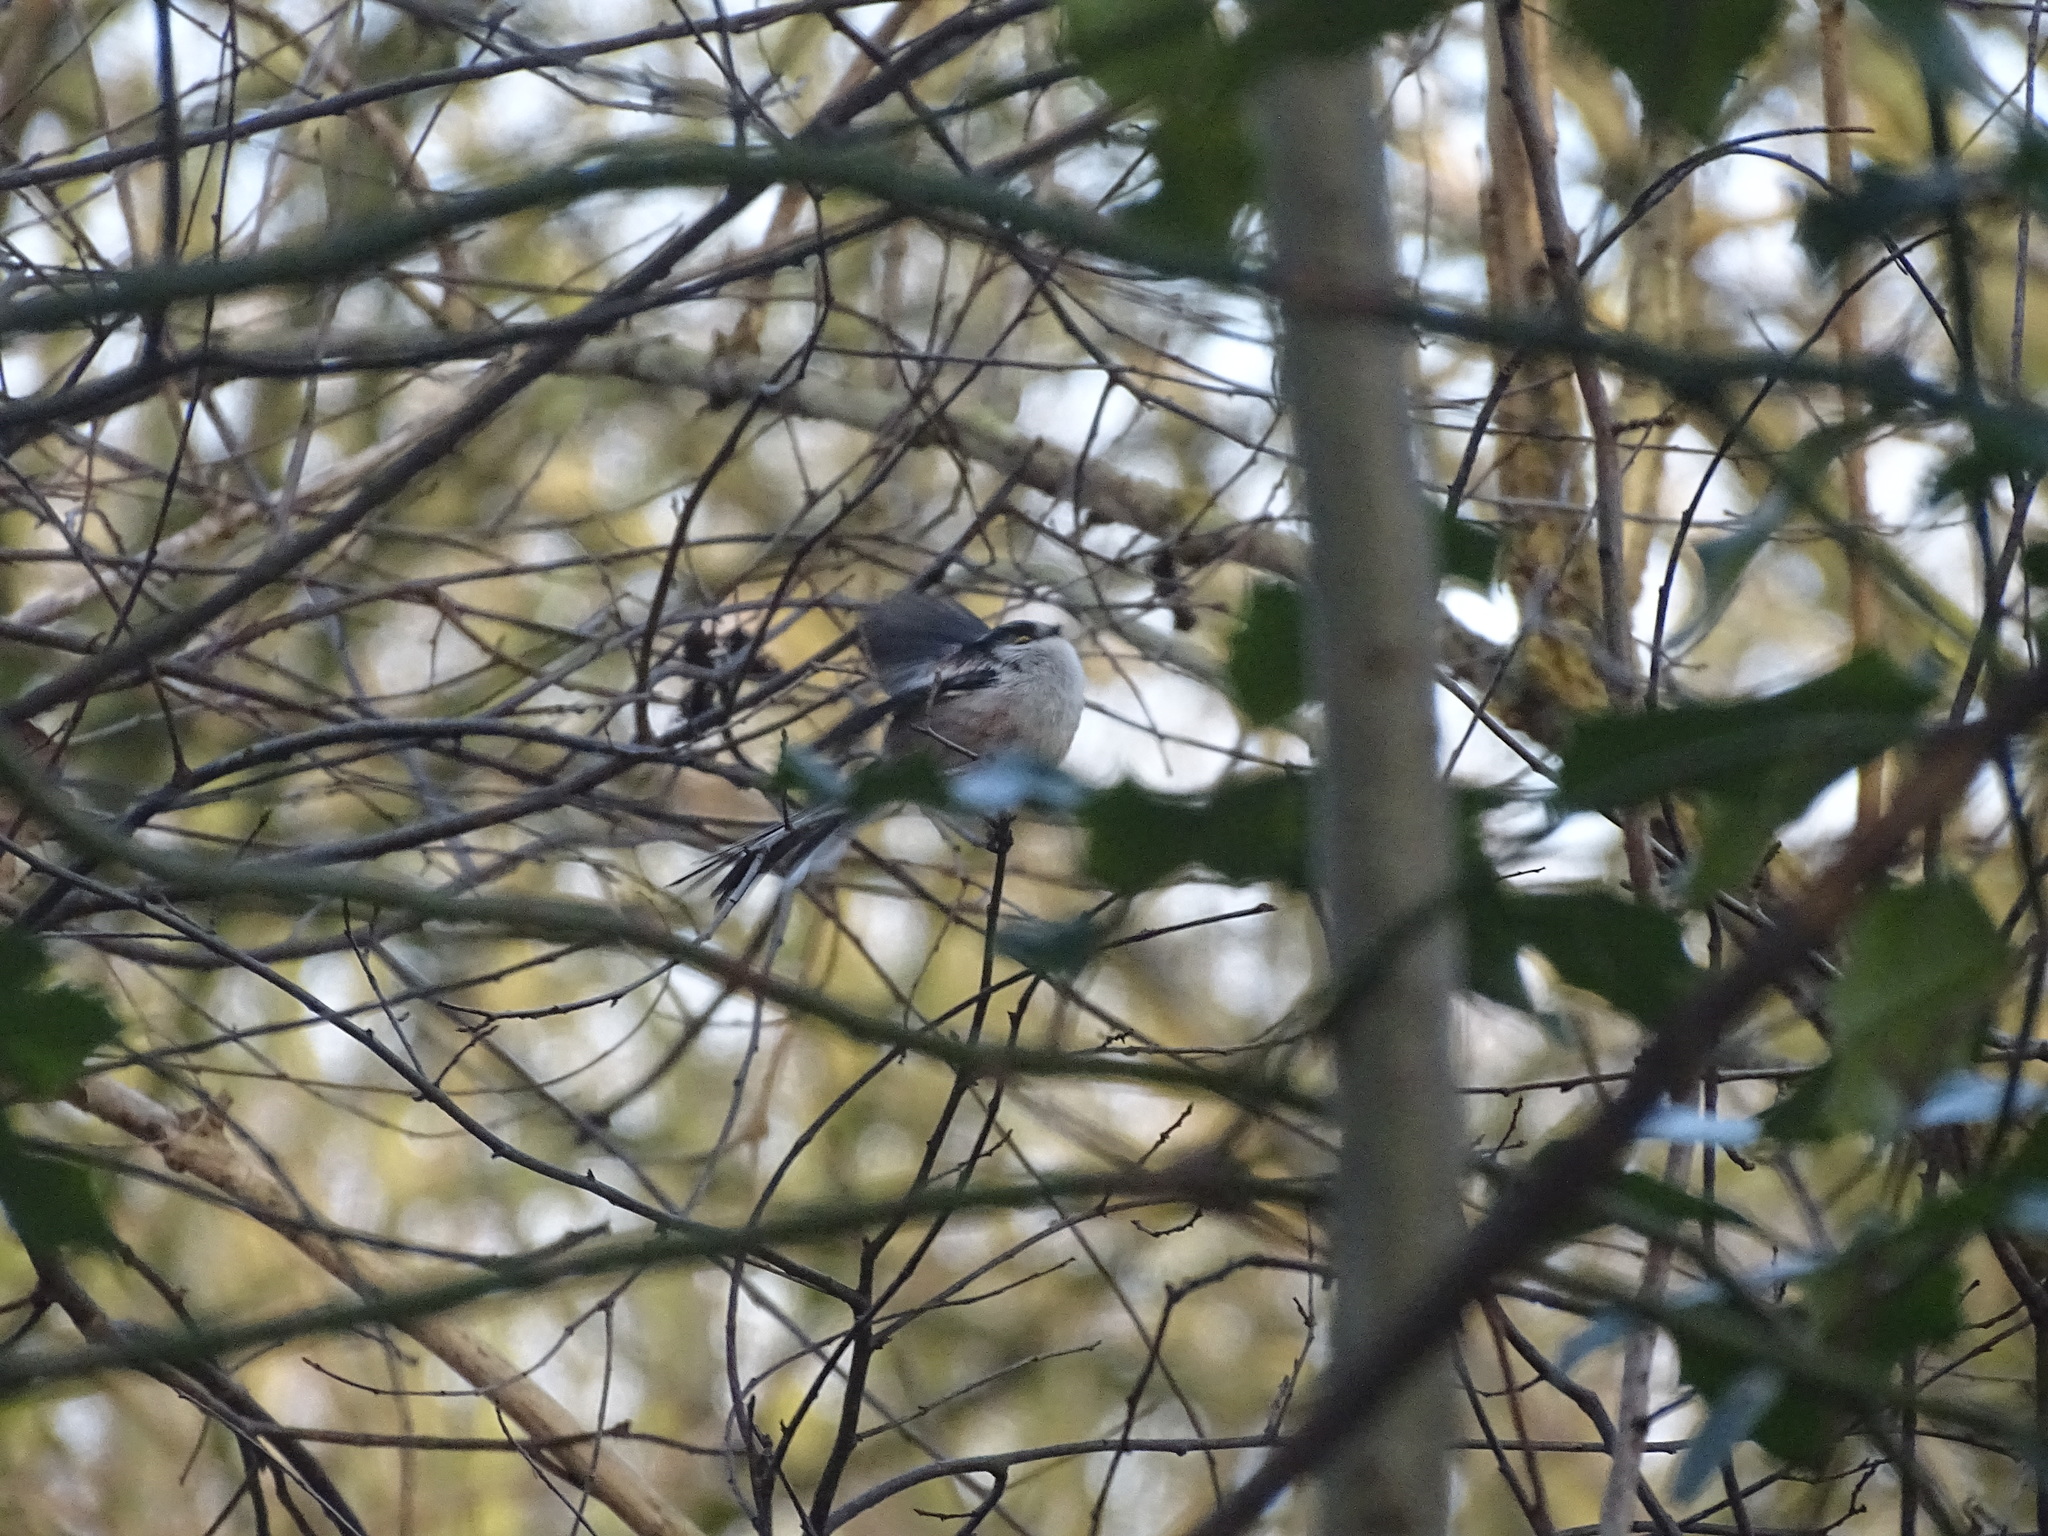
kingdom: Animalia
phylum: Chordata
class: Aves
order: Passeriformes
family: Aegithalidae
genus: Aegithalos
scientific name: Aegithalos caudatus
